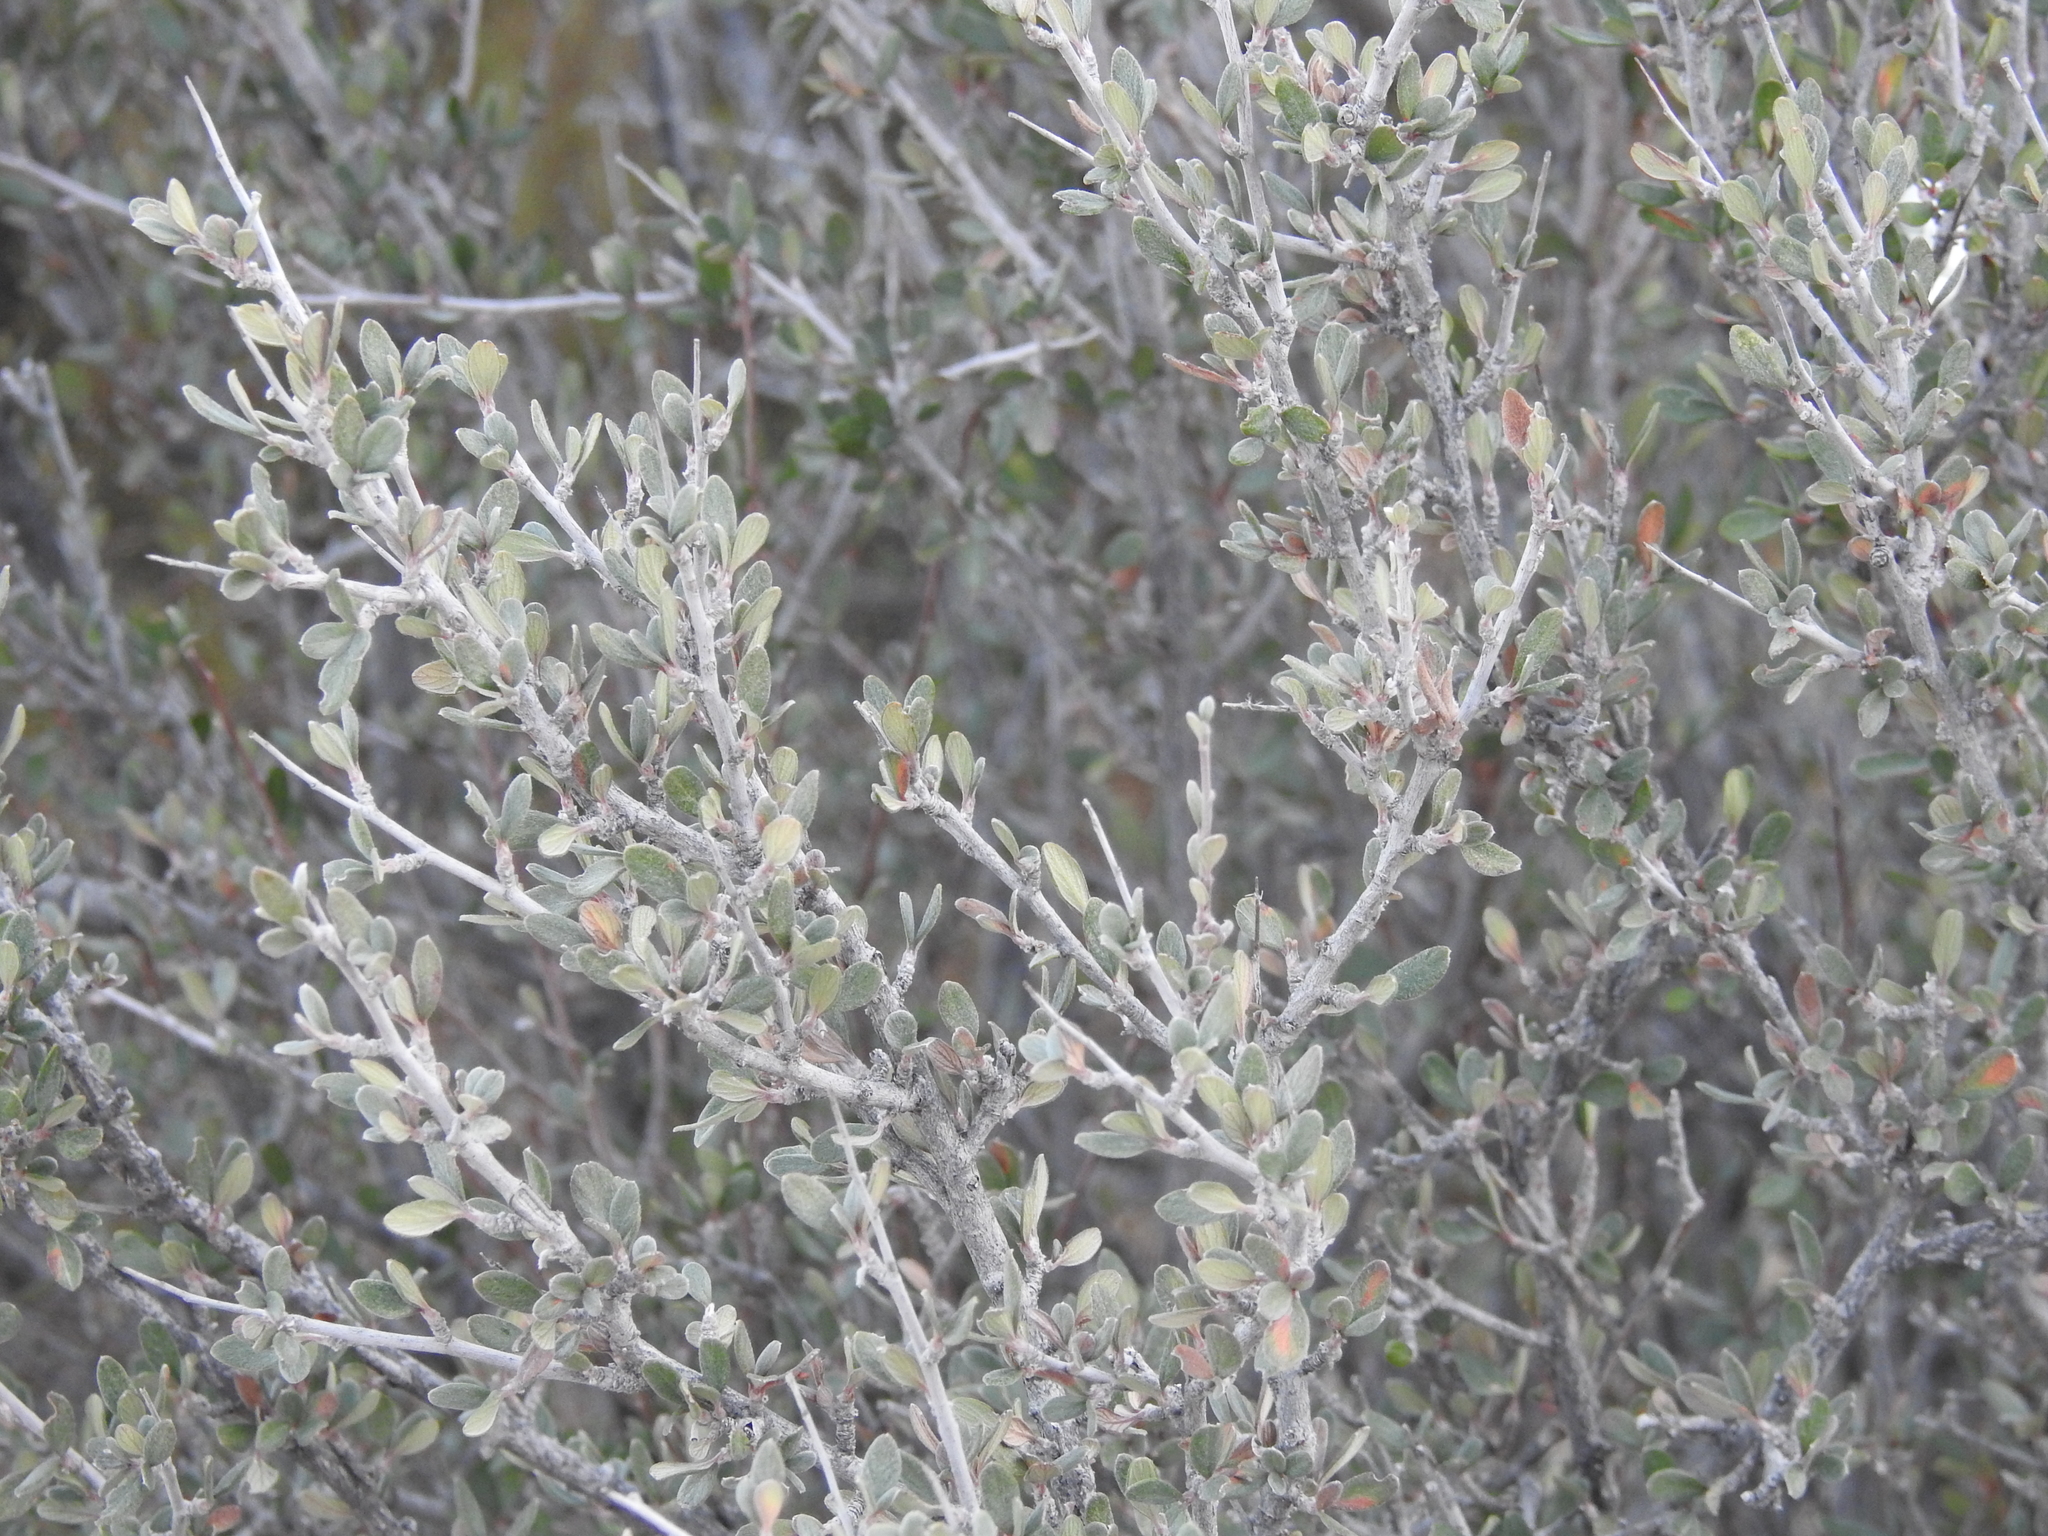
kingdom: Plantae
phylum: Tracheophyta
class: Magnoliopsida
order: Rosales
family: Rosaceae
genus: Cercocarpus
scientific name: Cercocarpus breviflorus
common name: Wright's mountain-mahogany
